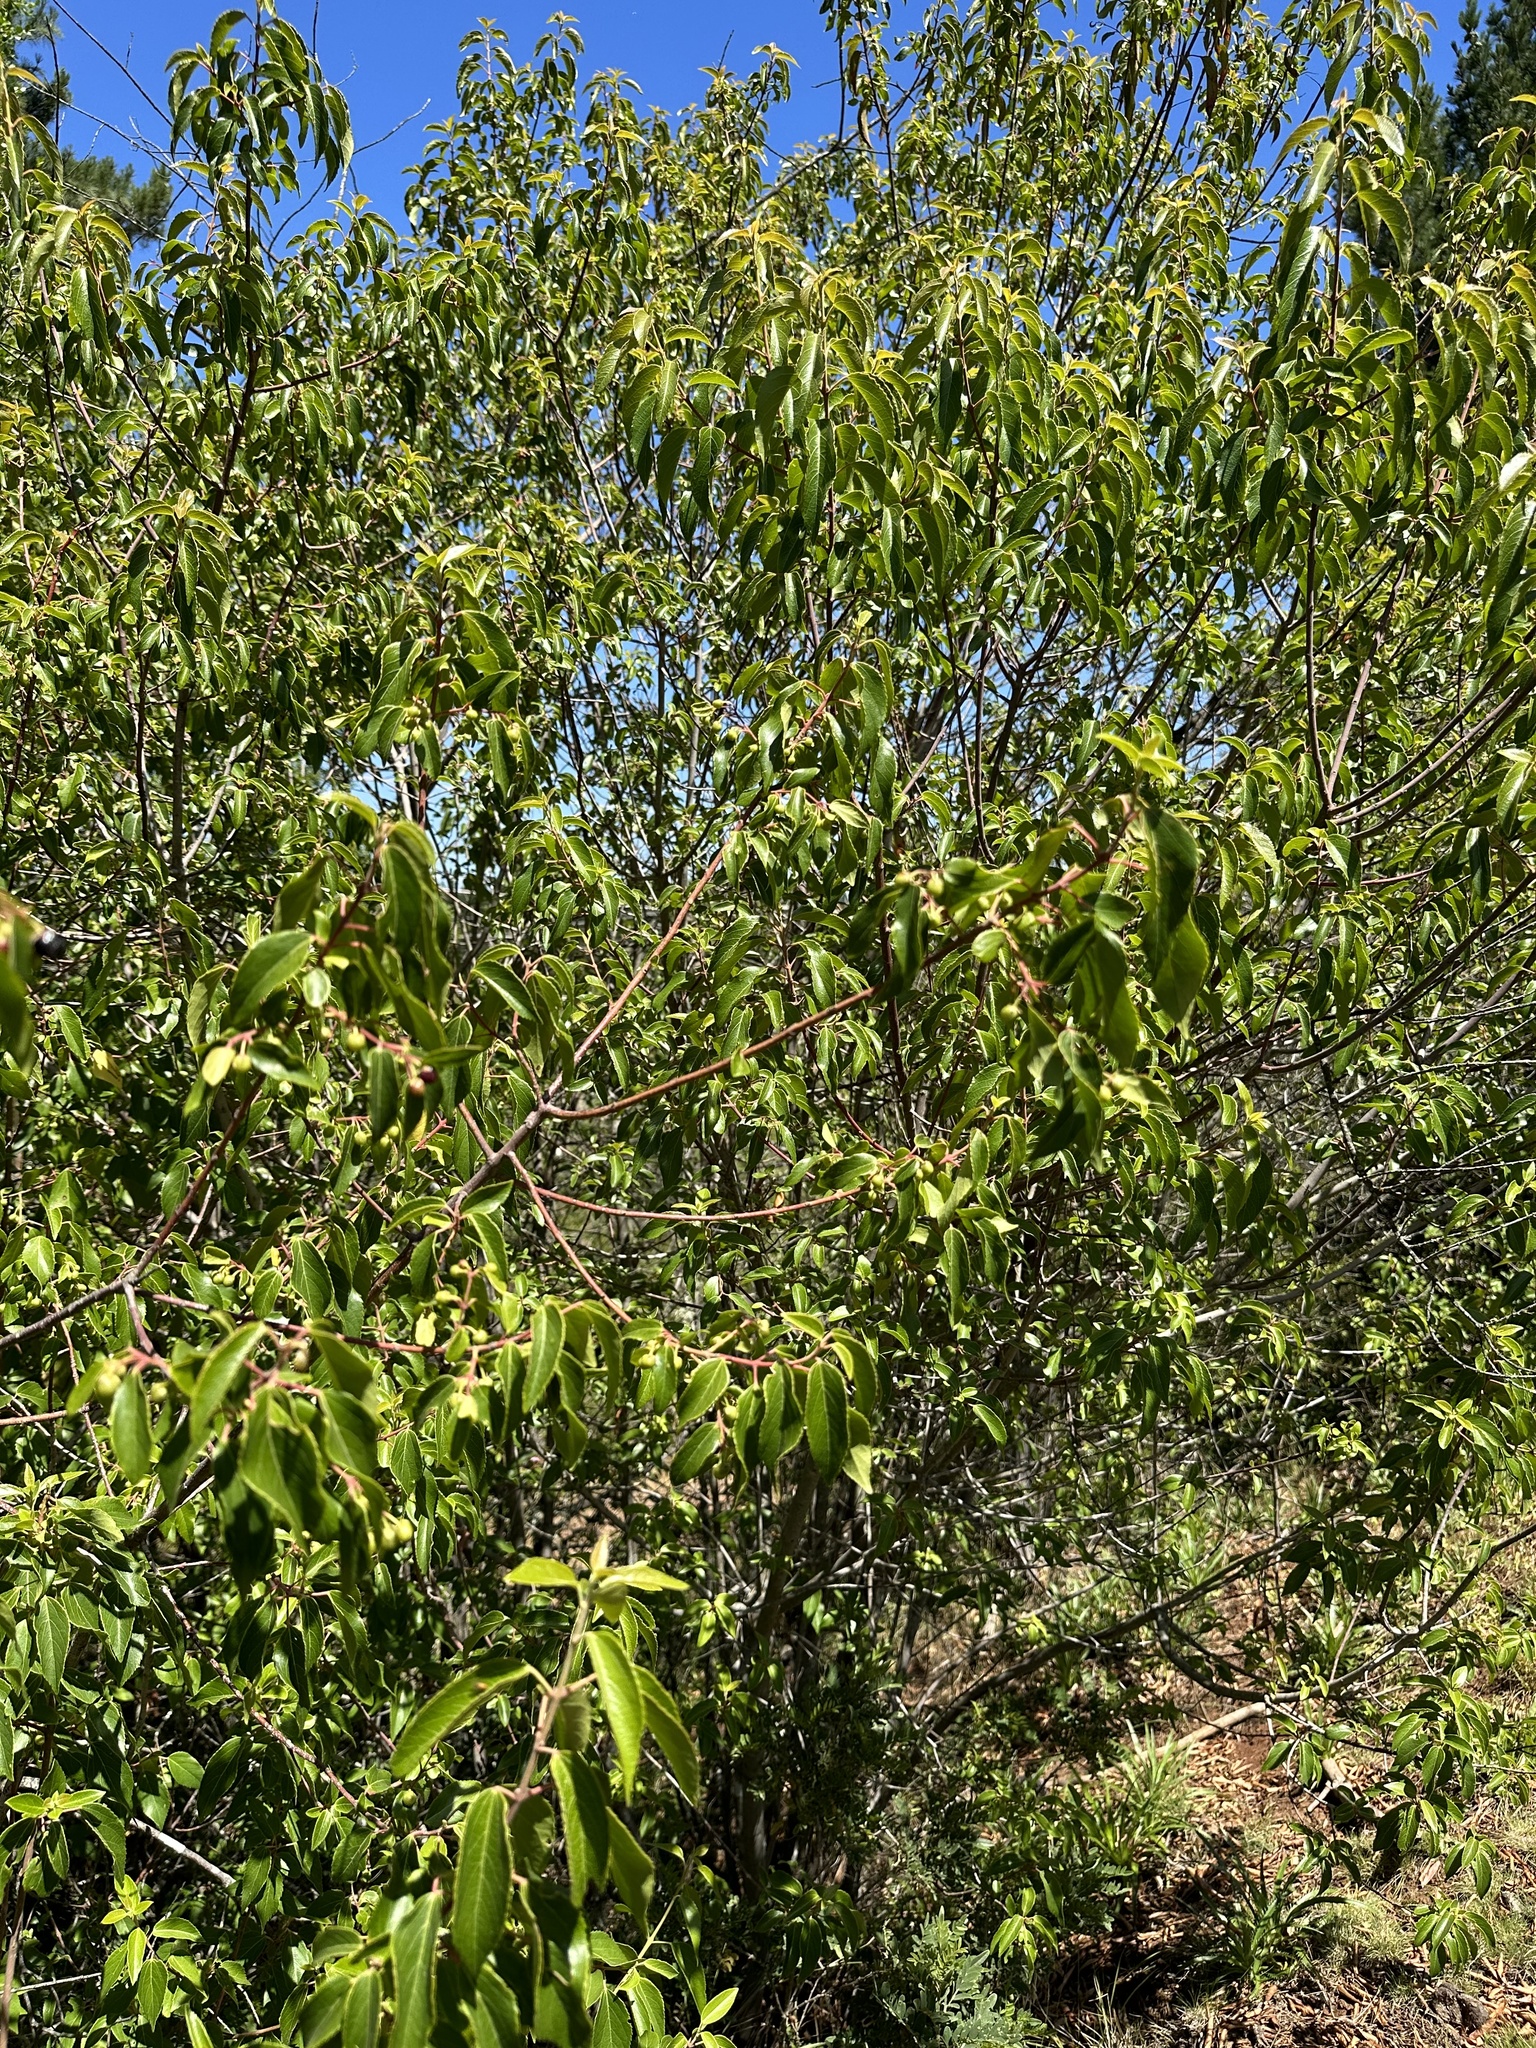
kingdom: Plantae
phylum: Tracheophyta
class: Magnoliopsida
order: Oxalidales
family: Elaeocarpaceae
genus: Aristotelia
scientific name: Aristotelia chilensis
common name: Maquei
